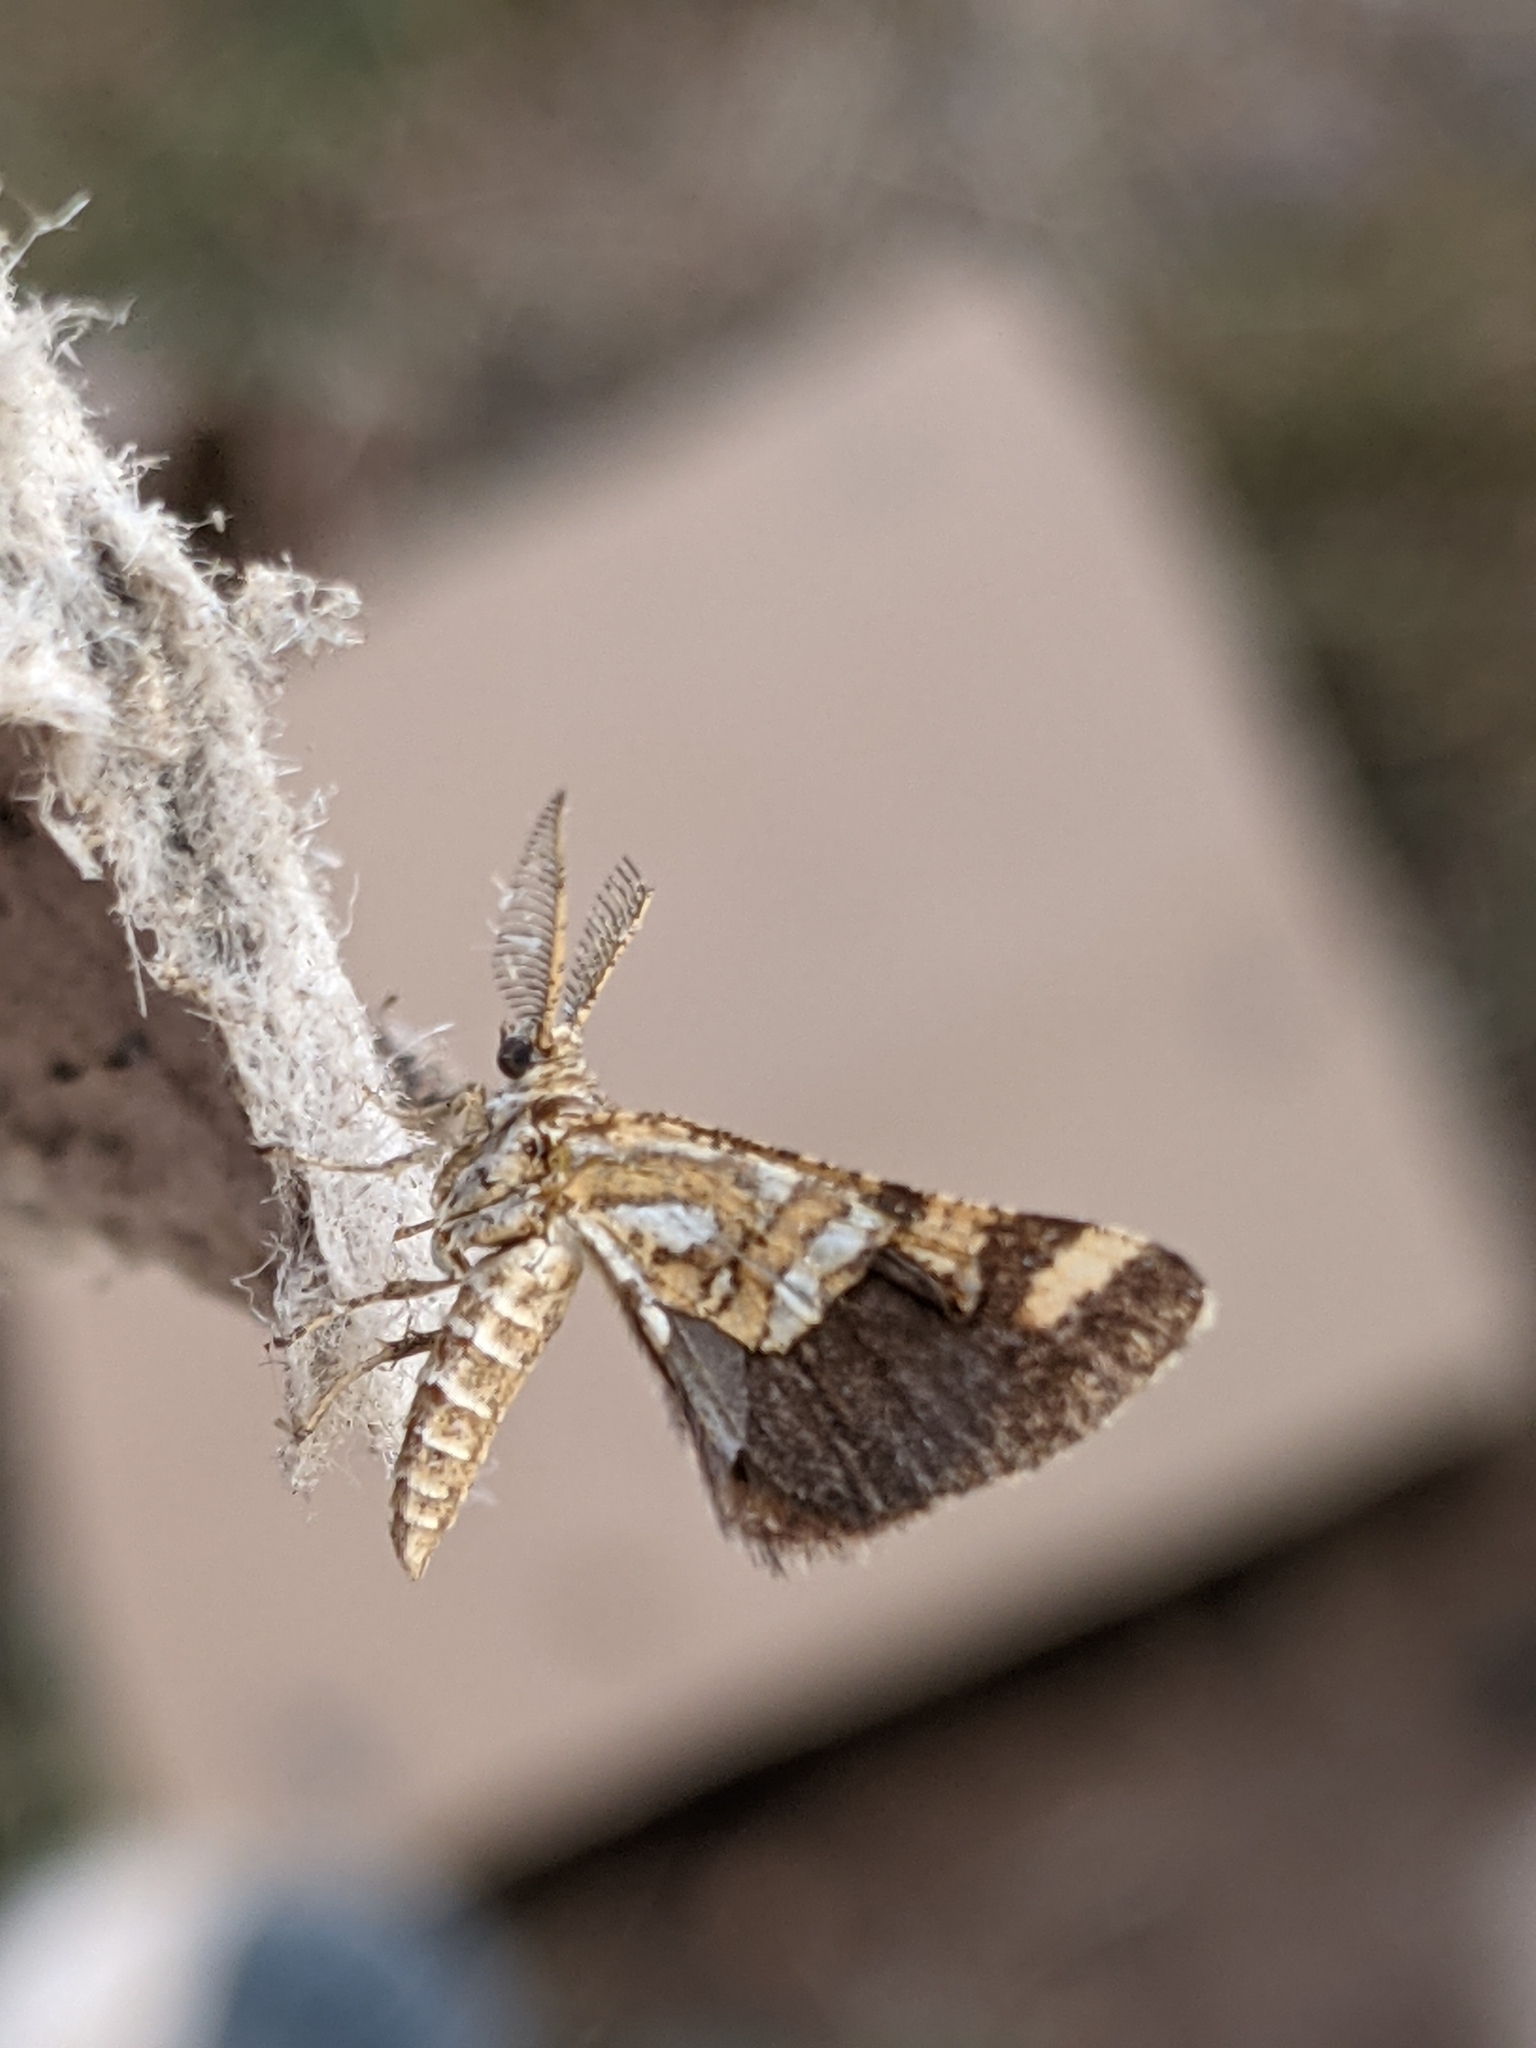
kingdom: Animalia
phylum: Arthropoda
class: Insecta
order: Lepidoptera
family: Geometridae
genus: Narraga
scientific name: Narraga fimetaria
